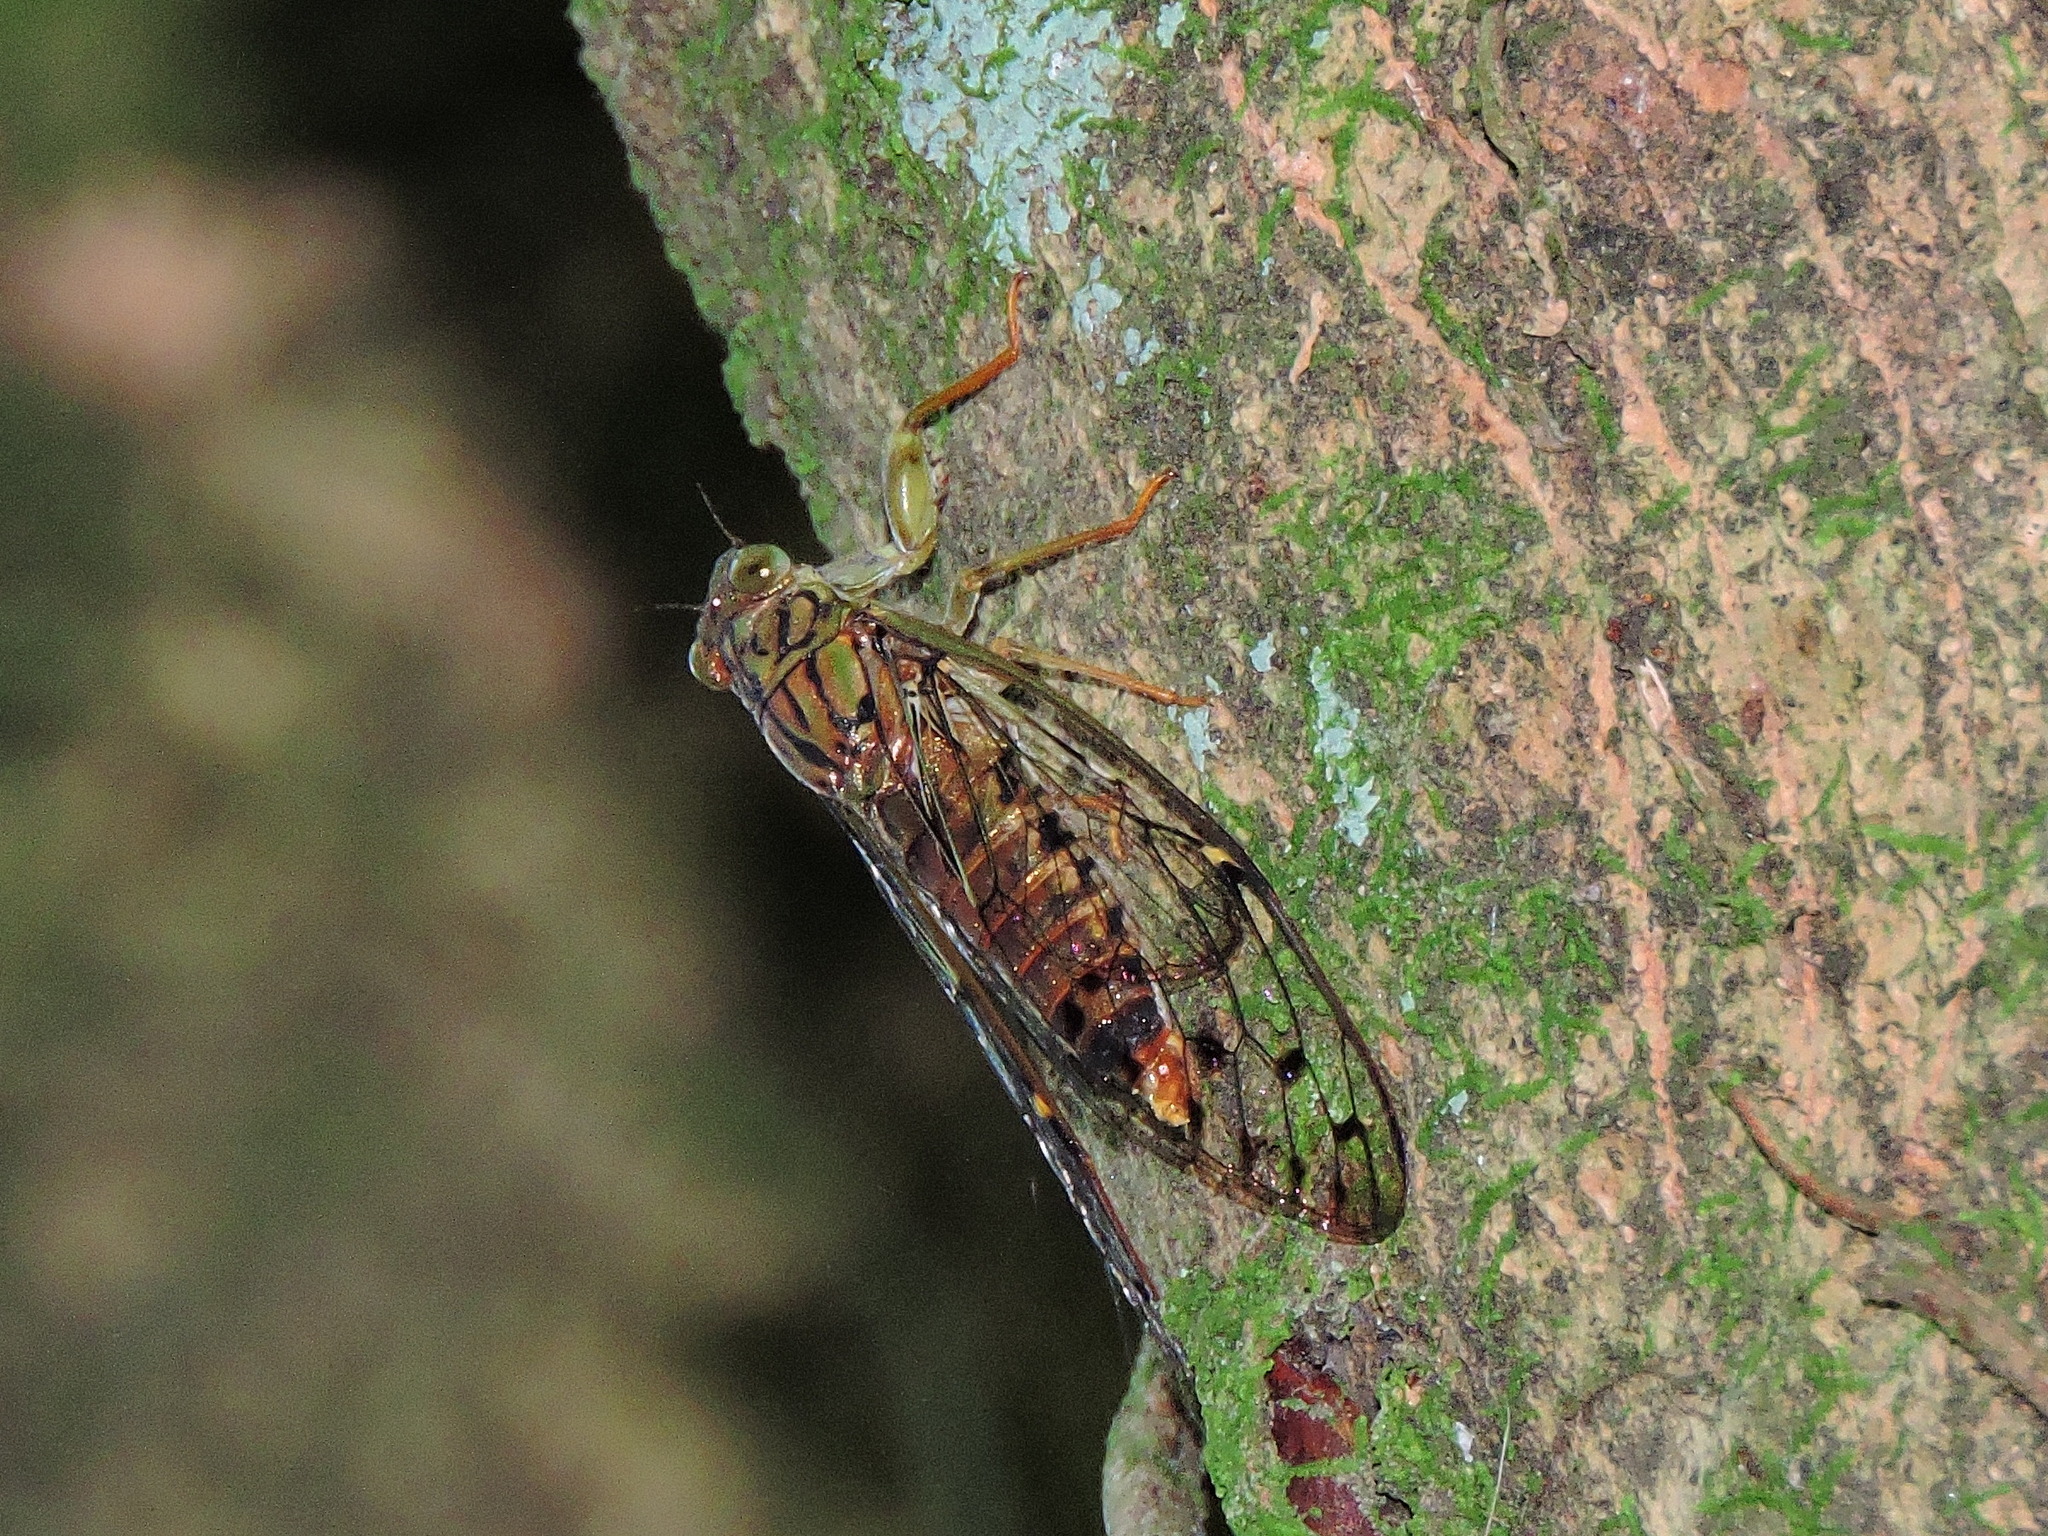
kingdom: Animalia
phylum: Arthropoda
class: Insecta
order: Hemiptera
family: Cicadidae
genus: Leptosemia
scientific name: Leptosemia sakaii
